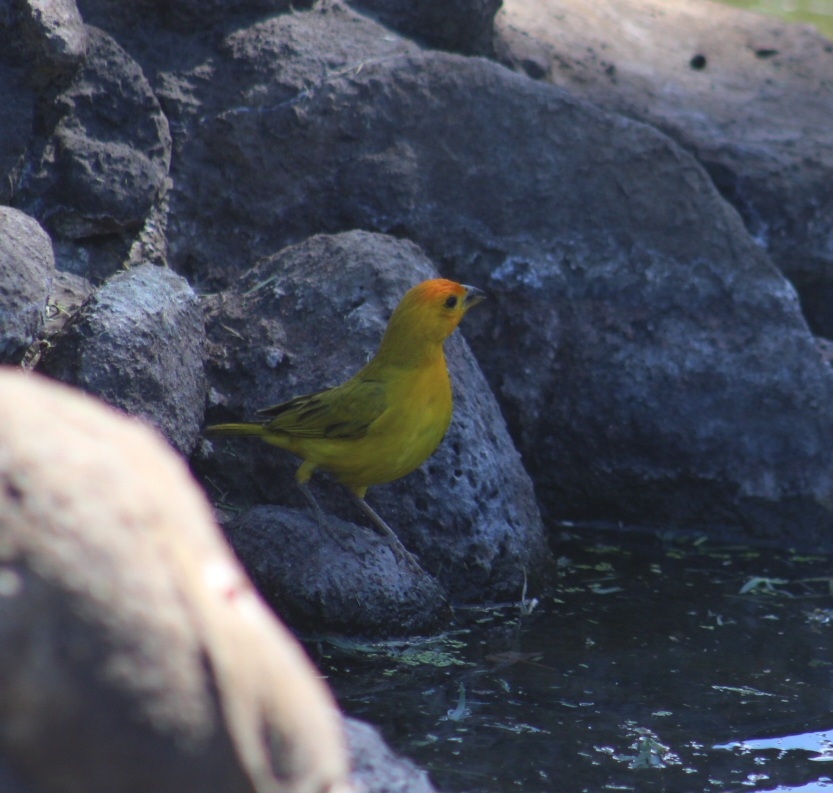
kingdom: Animalia
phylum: Chordata
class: Aves
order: Passeriformes
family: Thraupidae
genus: Sicalis
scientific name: Sicalis flaveola
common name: Saffron finch
